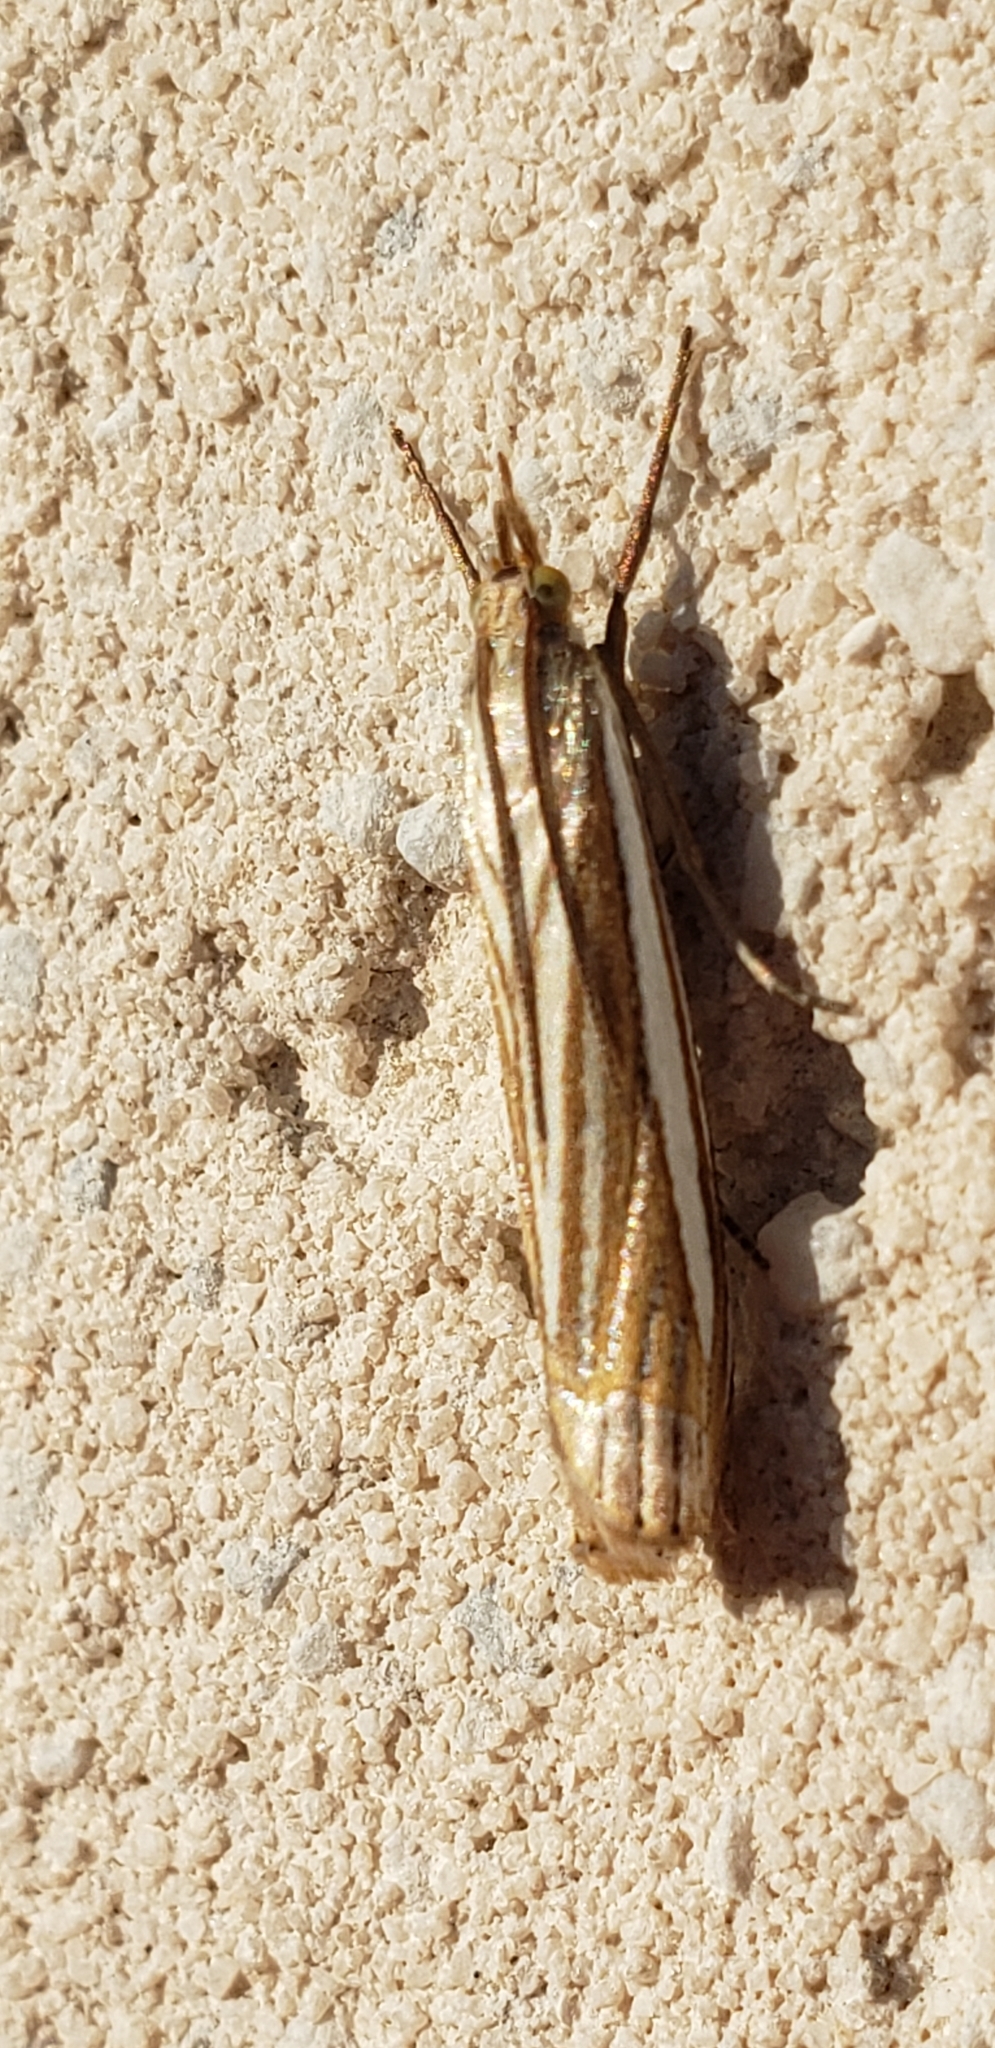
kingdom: Animalia
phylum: Arthropoda
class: Insecta
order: Lepidoptera
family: Crambidae
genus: Crambus
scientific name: Crambus laqueatellus
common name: Eastern grass-veneer
